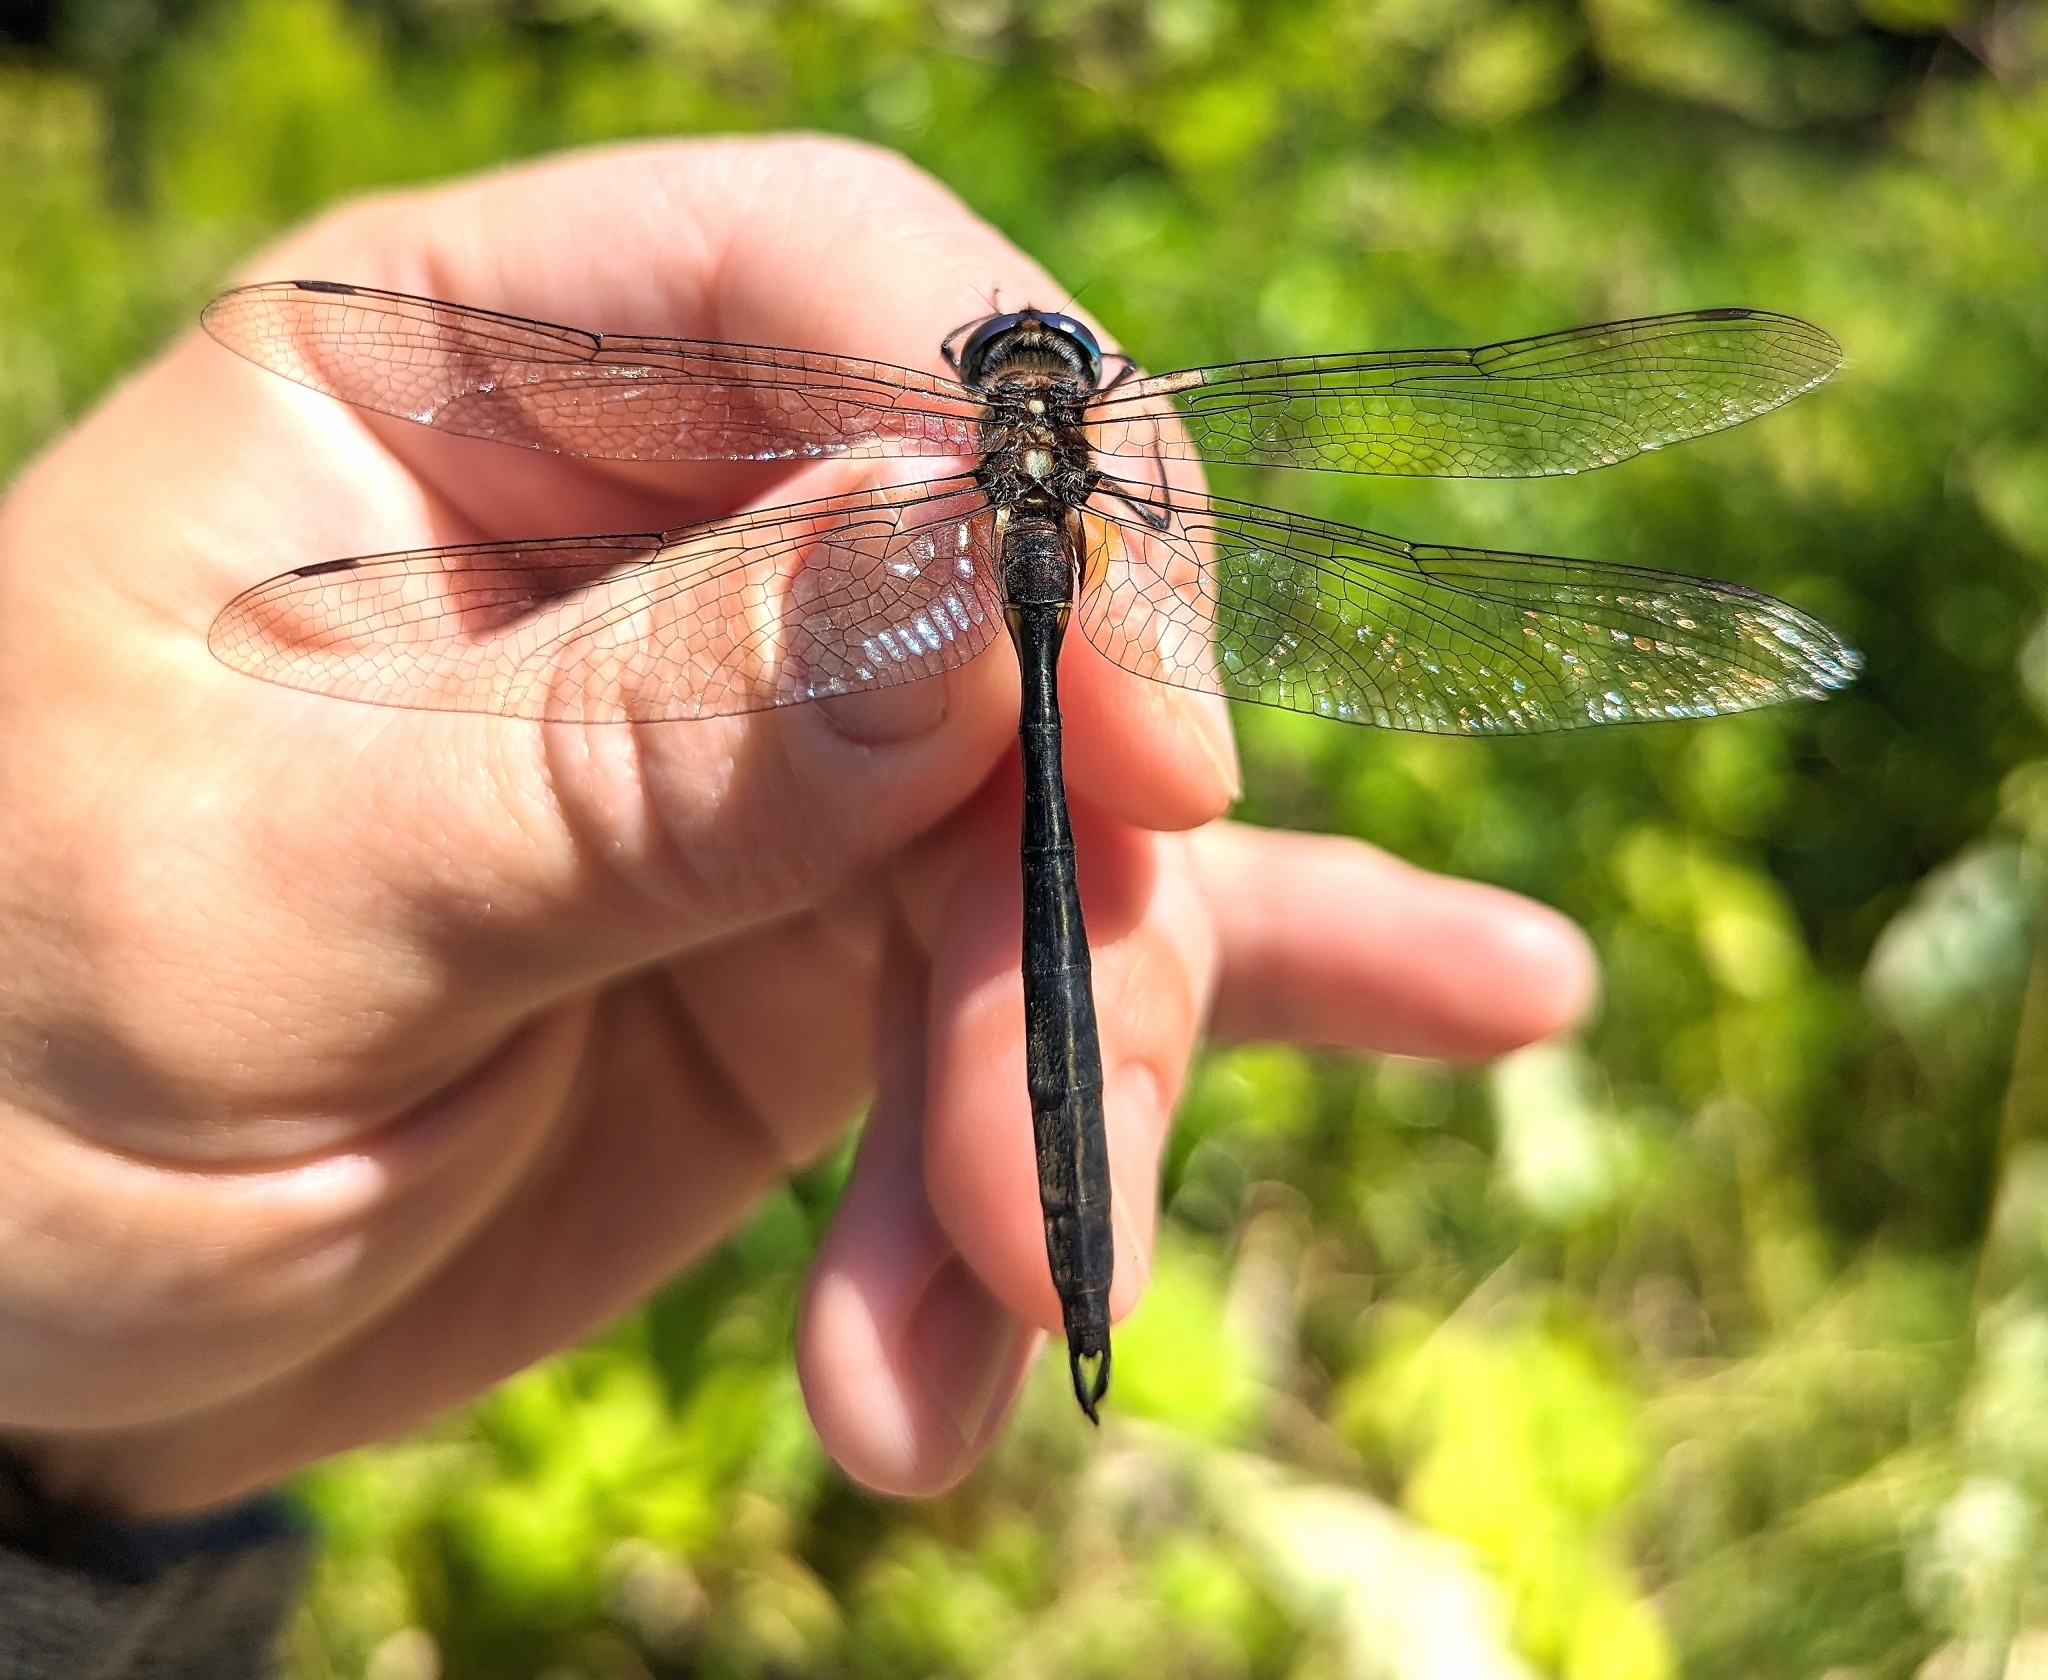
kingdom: Animalia
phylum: Arthropoda
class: Insecta
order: Odonata
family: Corduliidae
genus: Somatochlora
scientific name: Somatochlora tenebrosa
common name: Clamp-tipped emerald
